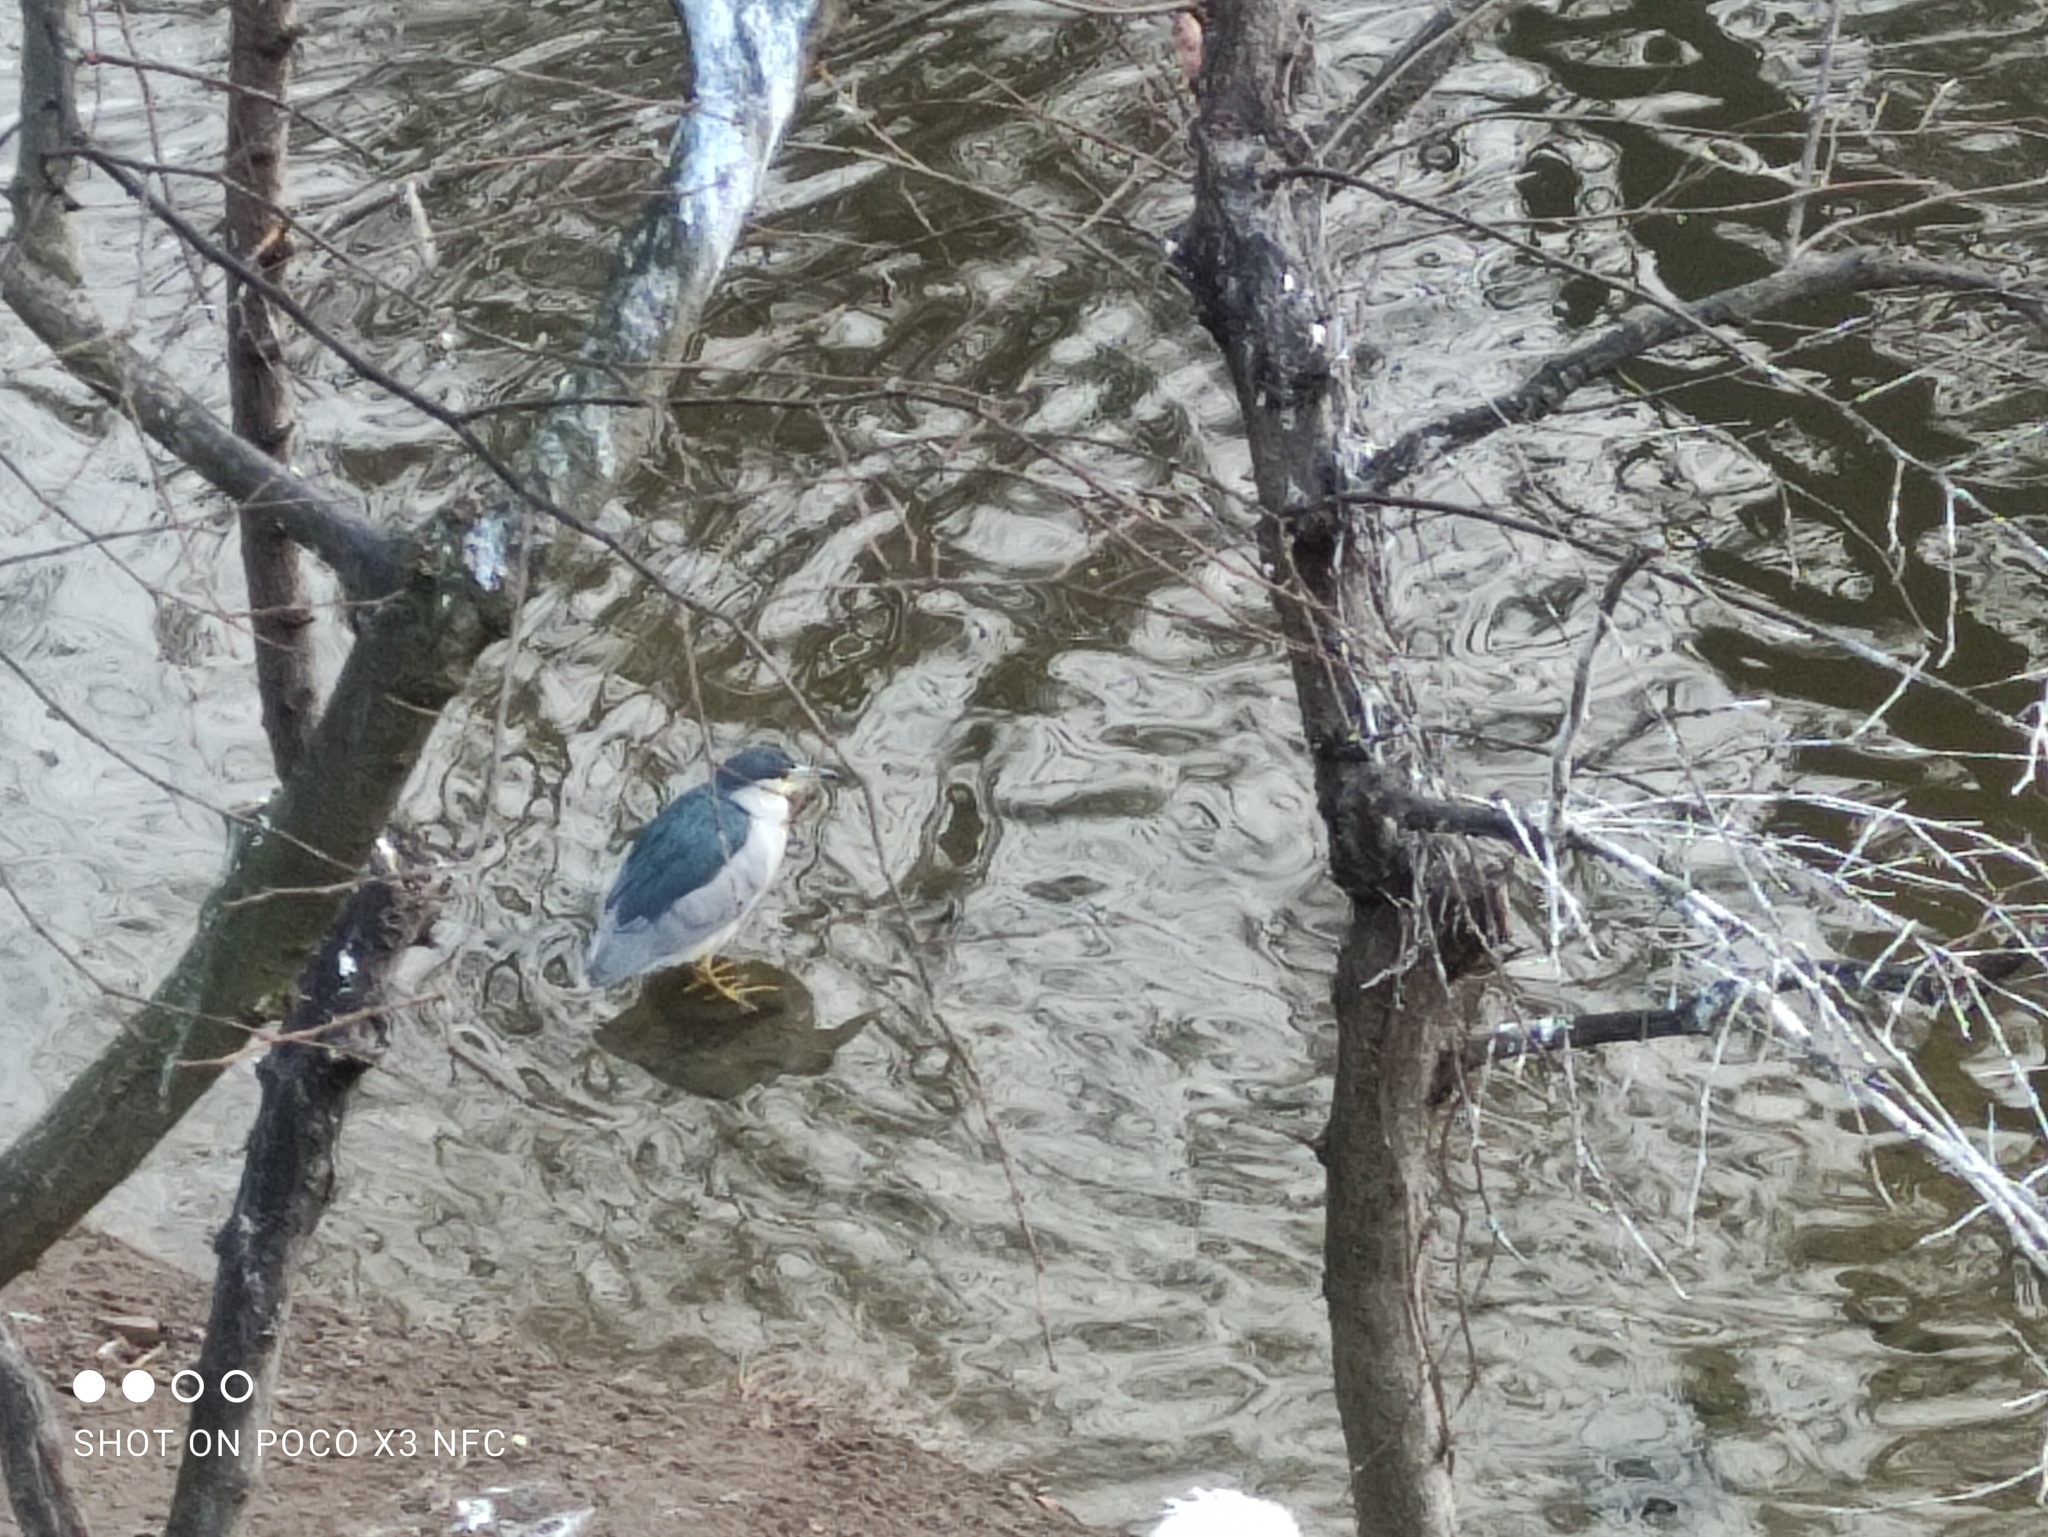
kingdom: Animalia
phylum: Chordata
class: Aves
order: Pelecaniformes
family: Ardeidae
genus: Nycticorax
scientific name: Nycticorax nycticorax
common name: Black-crowned night heron
